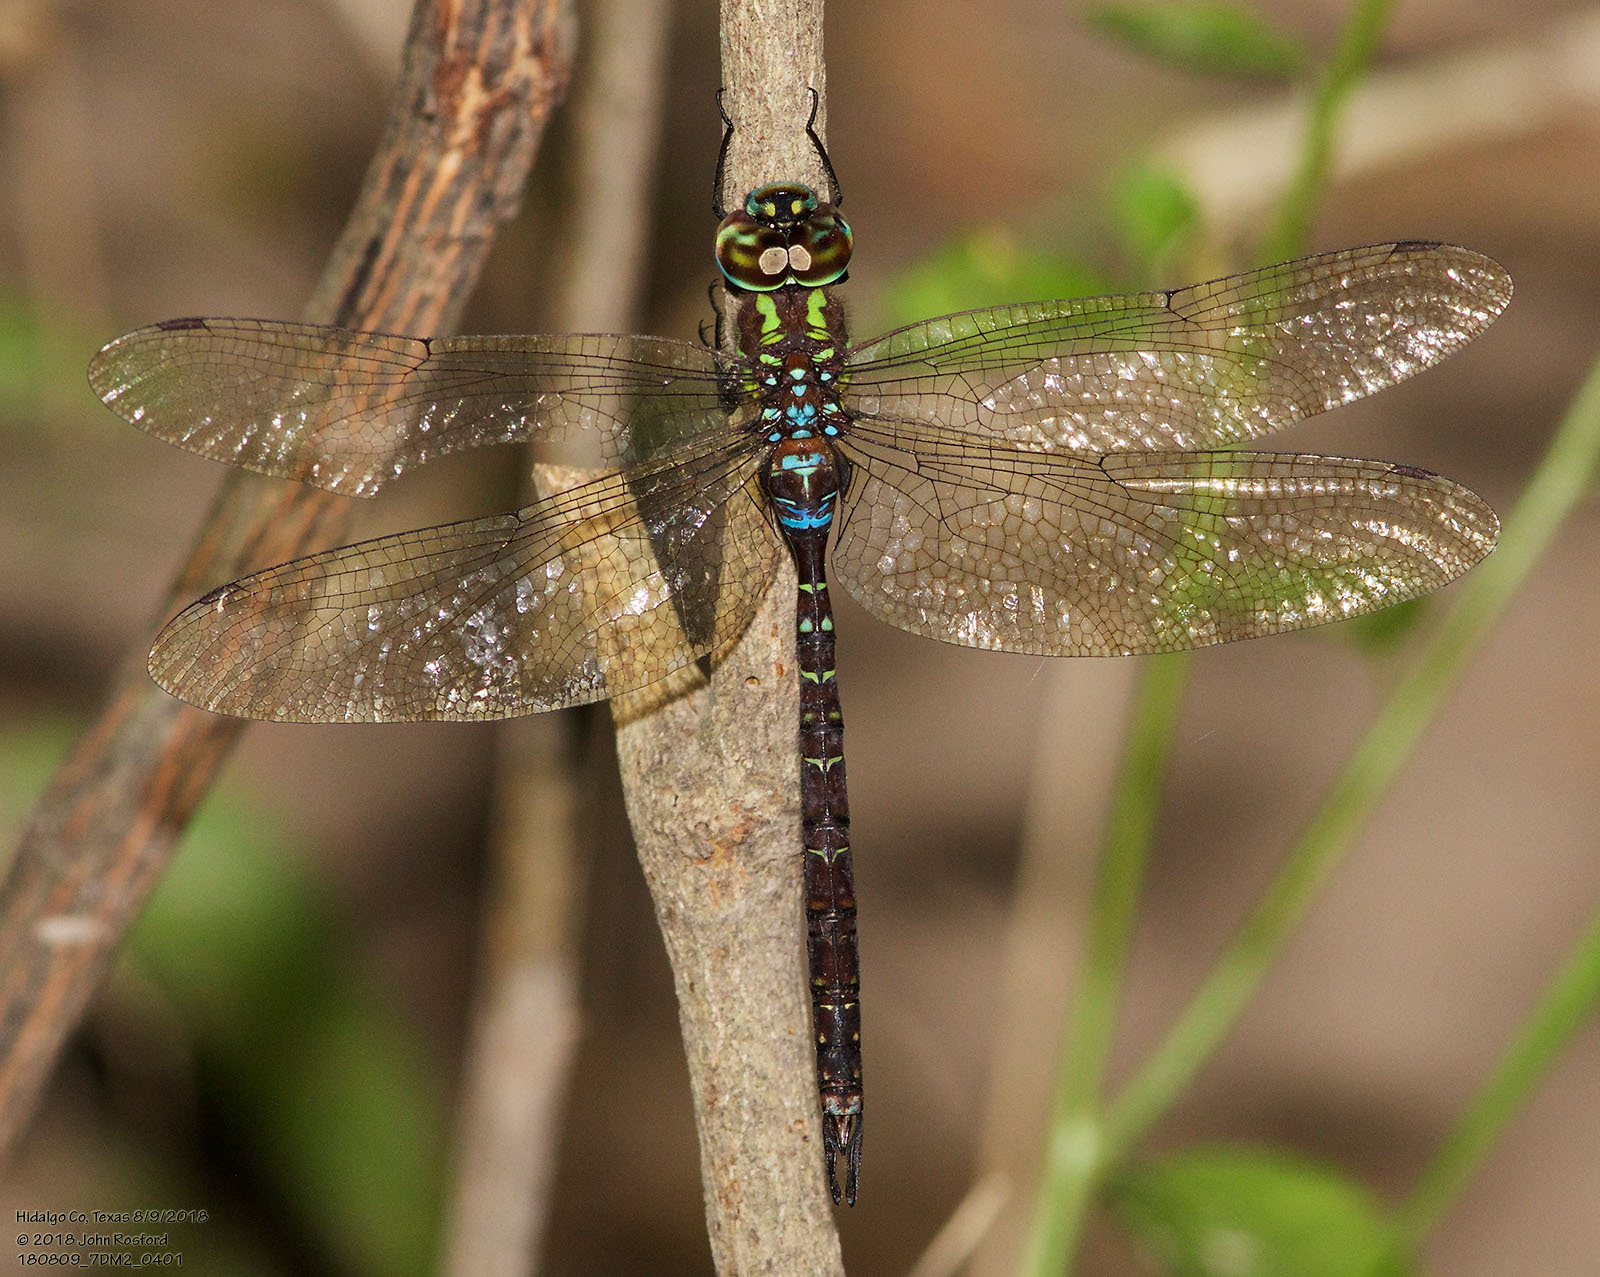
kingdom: Animalia
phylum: Arthropoda
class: Insecta
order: Odonata
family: Aeshnidae
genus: Rhionaeschna
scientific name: Rhionaeschna psilus
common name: Turquoise-tipped darner
